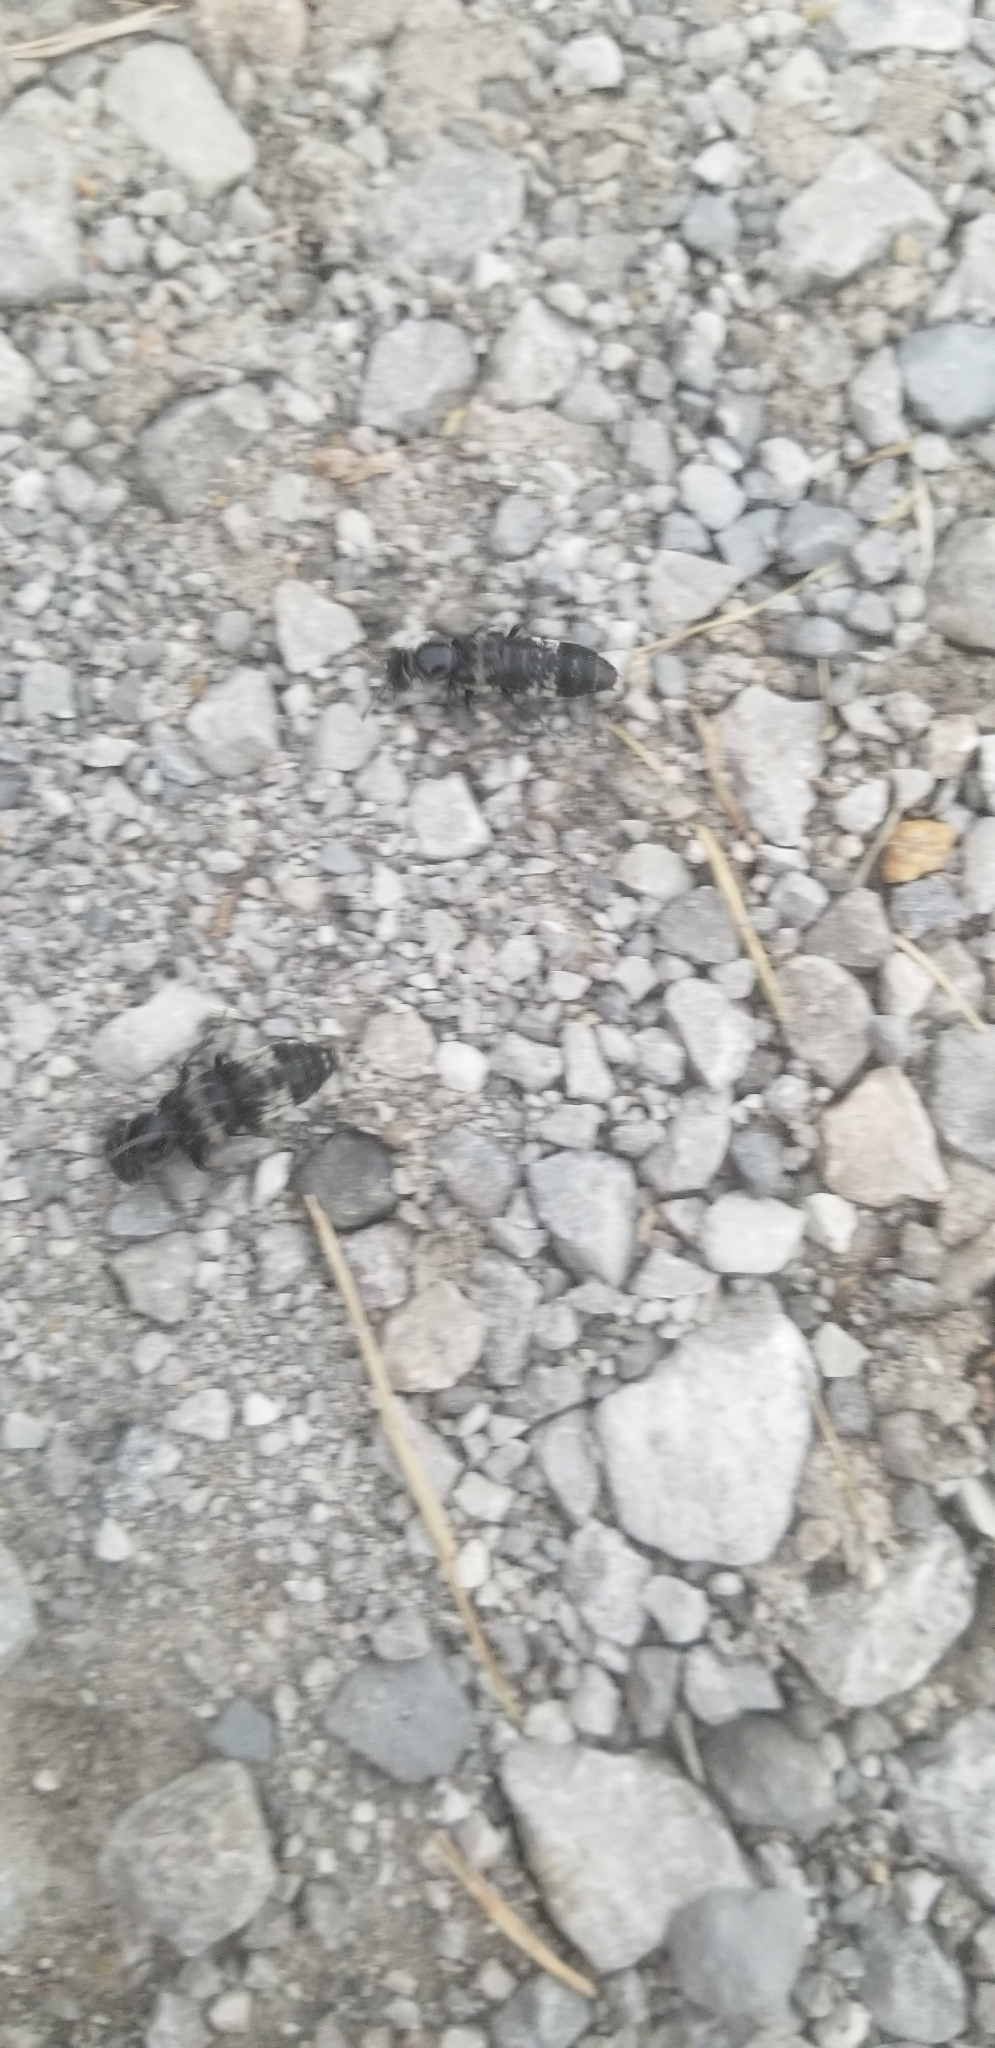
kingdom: Animalia
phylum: Arthropoda
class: Insecta
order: Coleoptera
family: Staphylinidae
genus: Creophilus
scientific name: Creophilus maxillosus
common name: Hairy rove beetle
